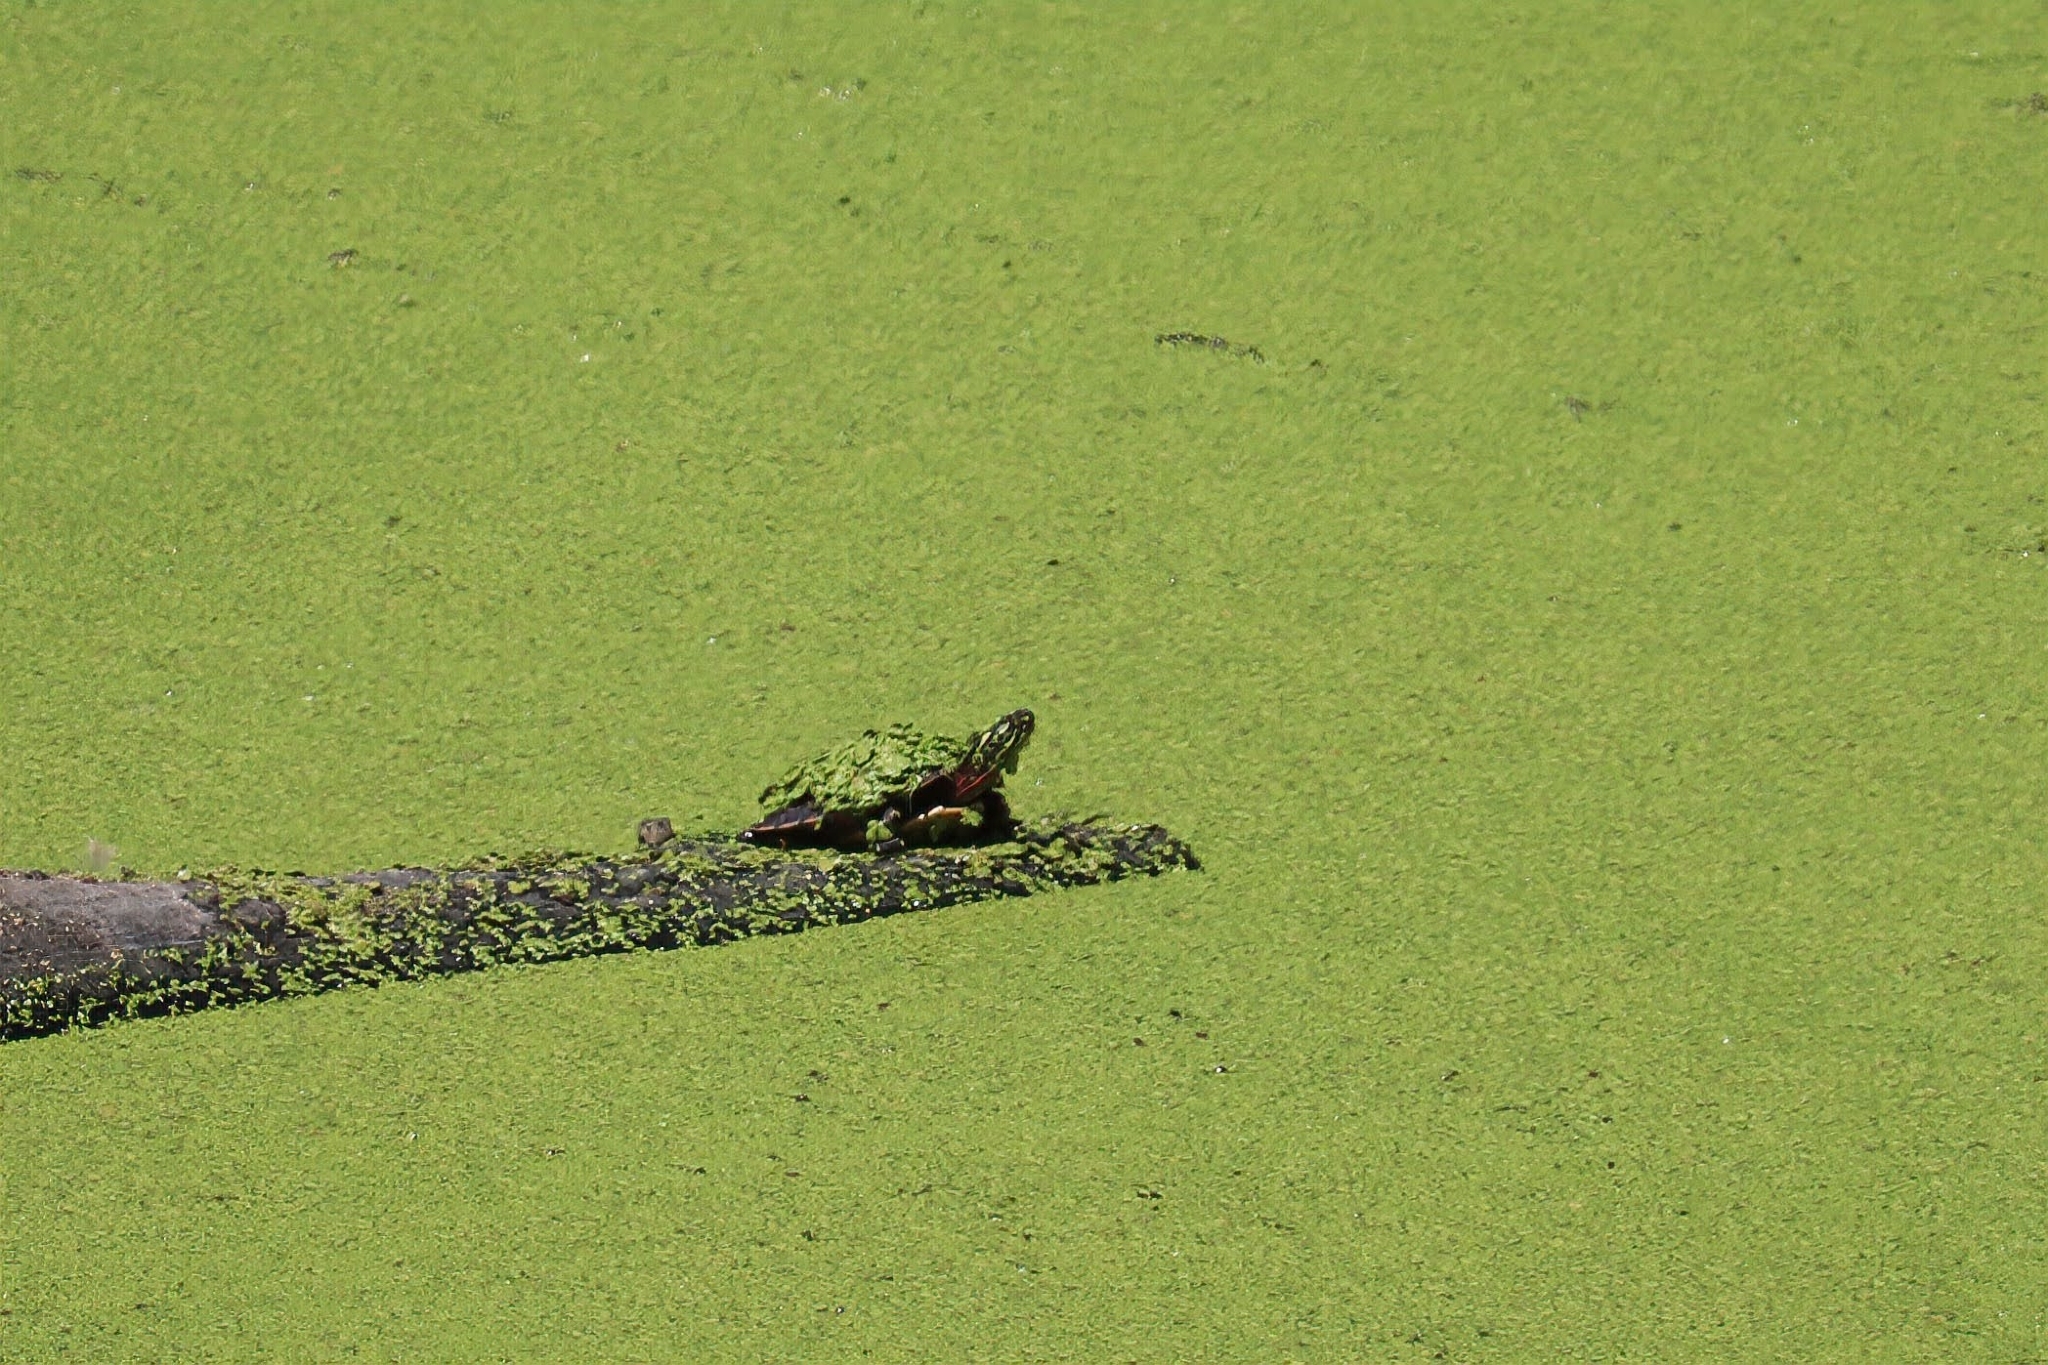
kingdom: Animalia
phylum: Chordata
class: Testudines
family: Emydidae
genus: Chrysemys
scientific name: Chrysemys picta
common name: Painted turtle
